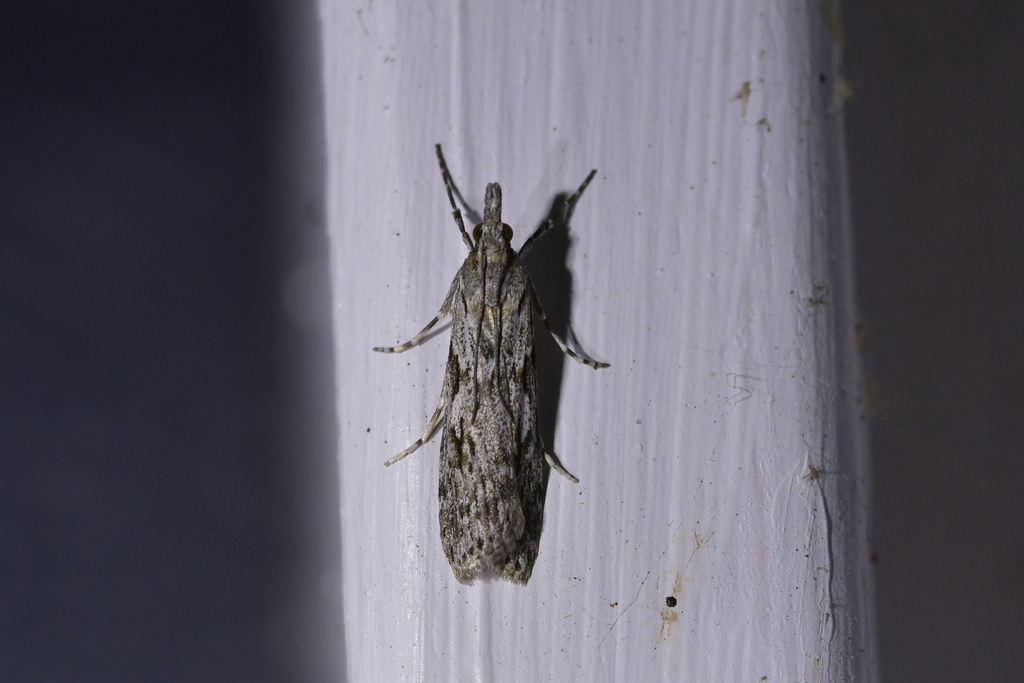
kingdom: Animalia
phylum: Arthropoda
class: Insecta
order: Lepidoptera
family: Crambidae
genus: Scoparia
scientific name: Scoparia halopis
